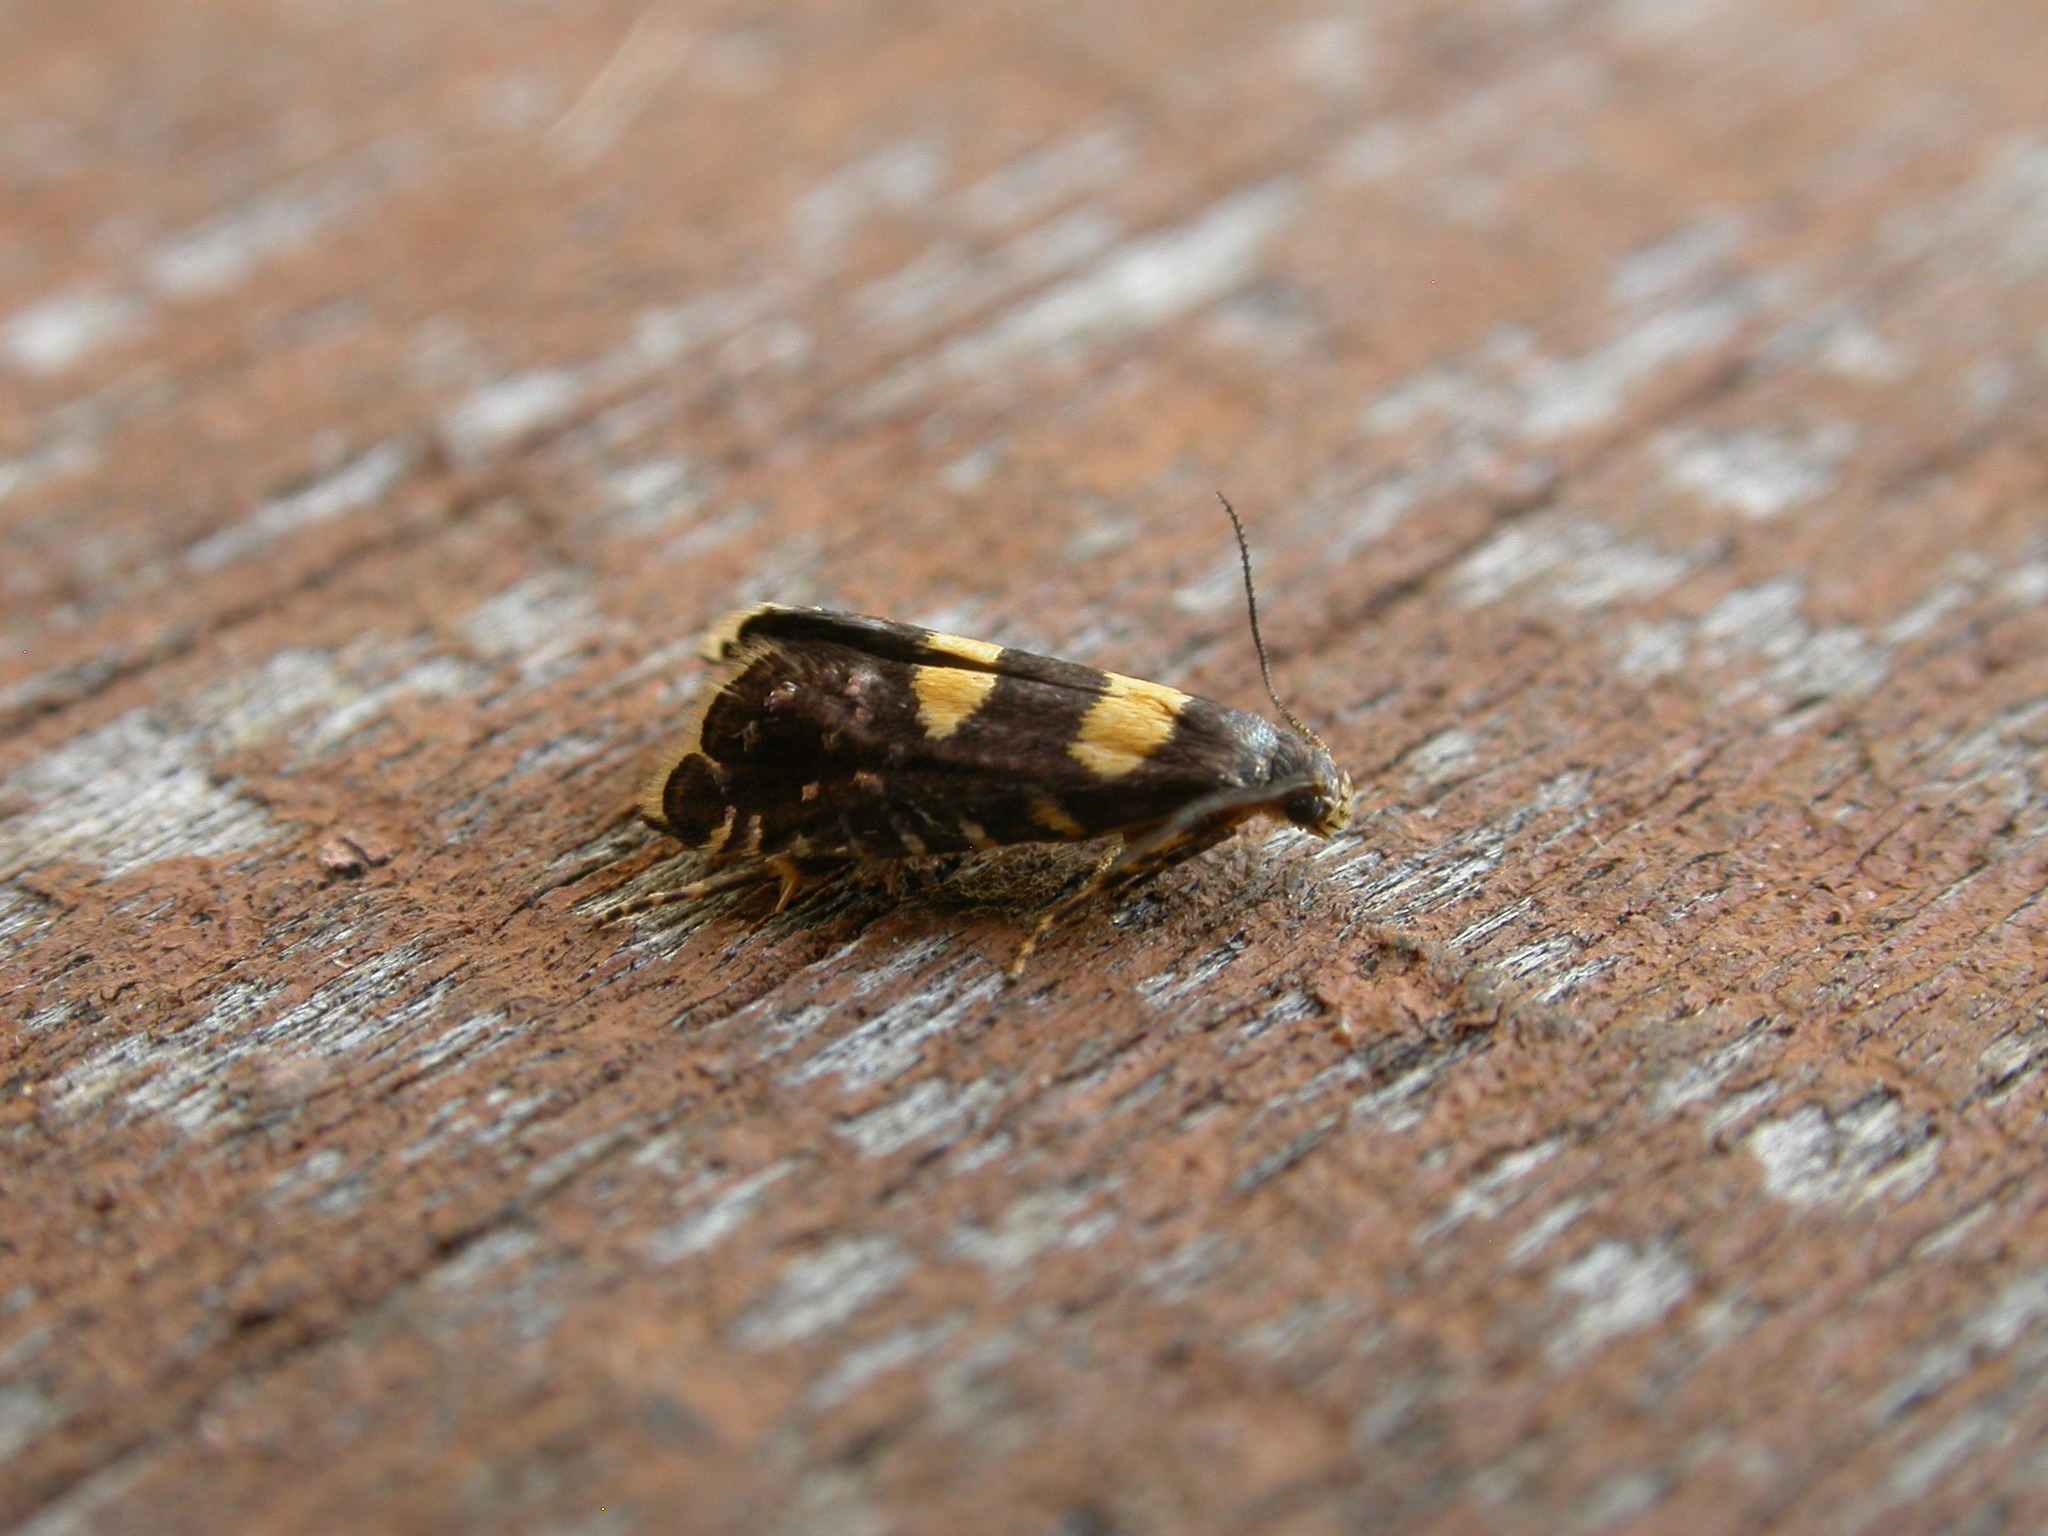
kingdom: Animalia
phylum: Arthropoda
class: Insecta
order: Lepidoptera
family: Glyphipterigidae
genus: Glyphipterix
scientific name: Glyphipterix chrysoplanetis
